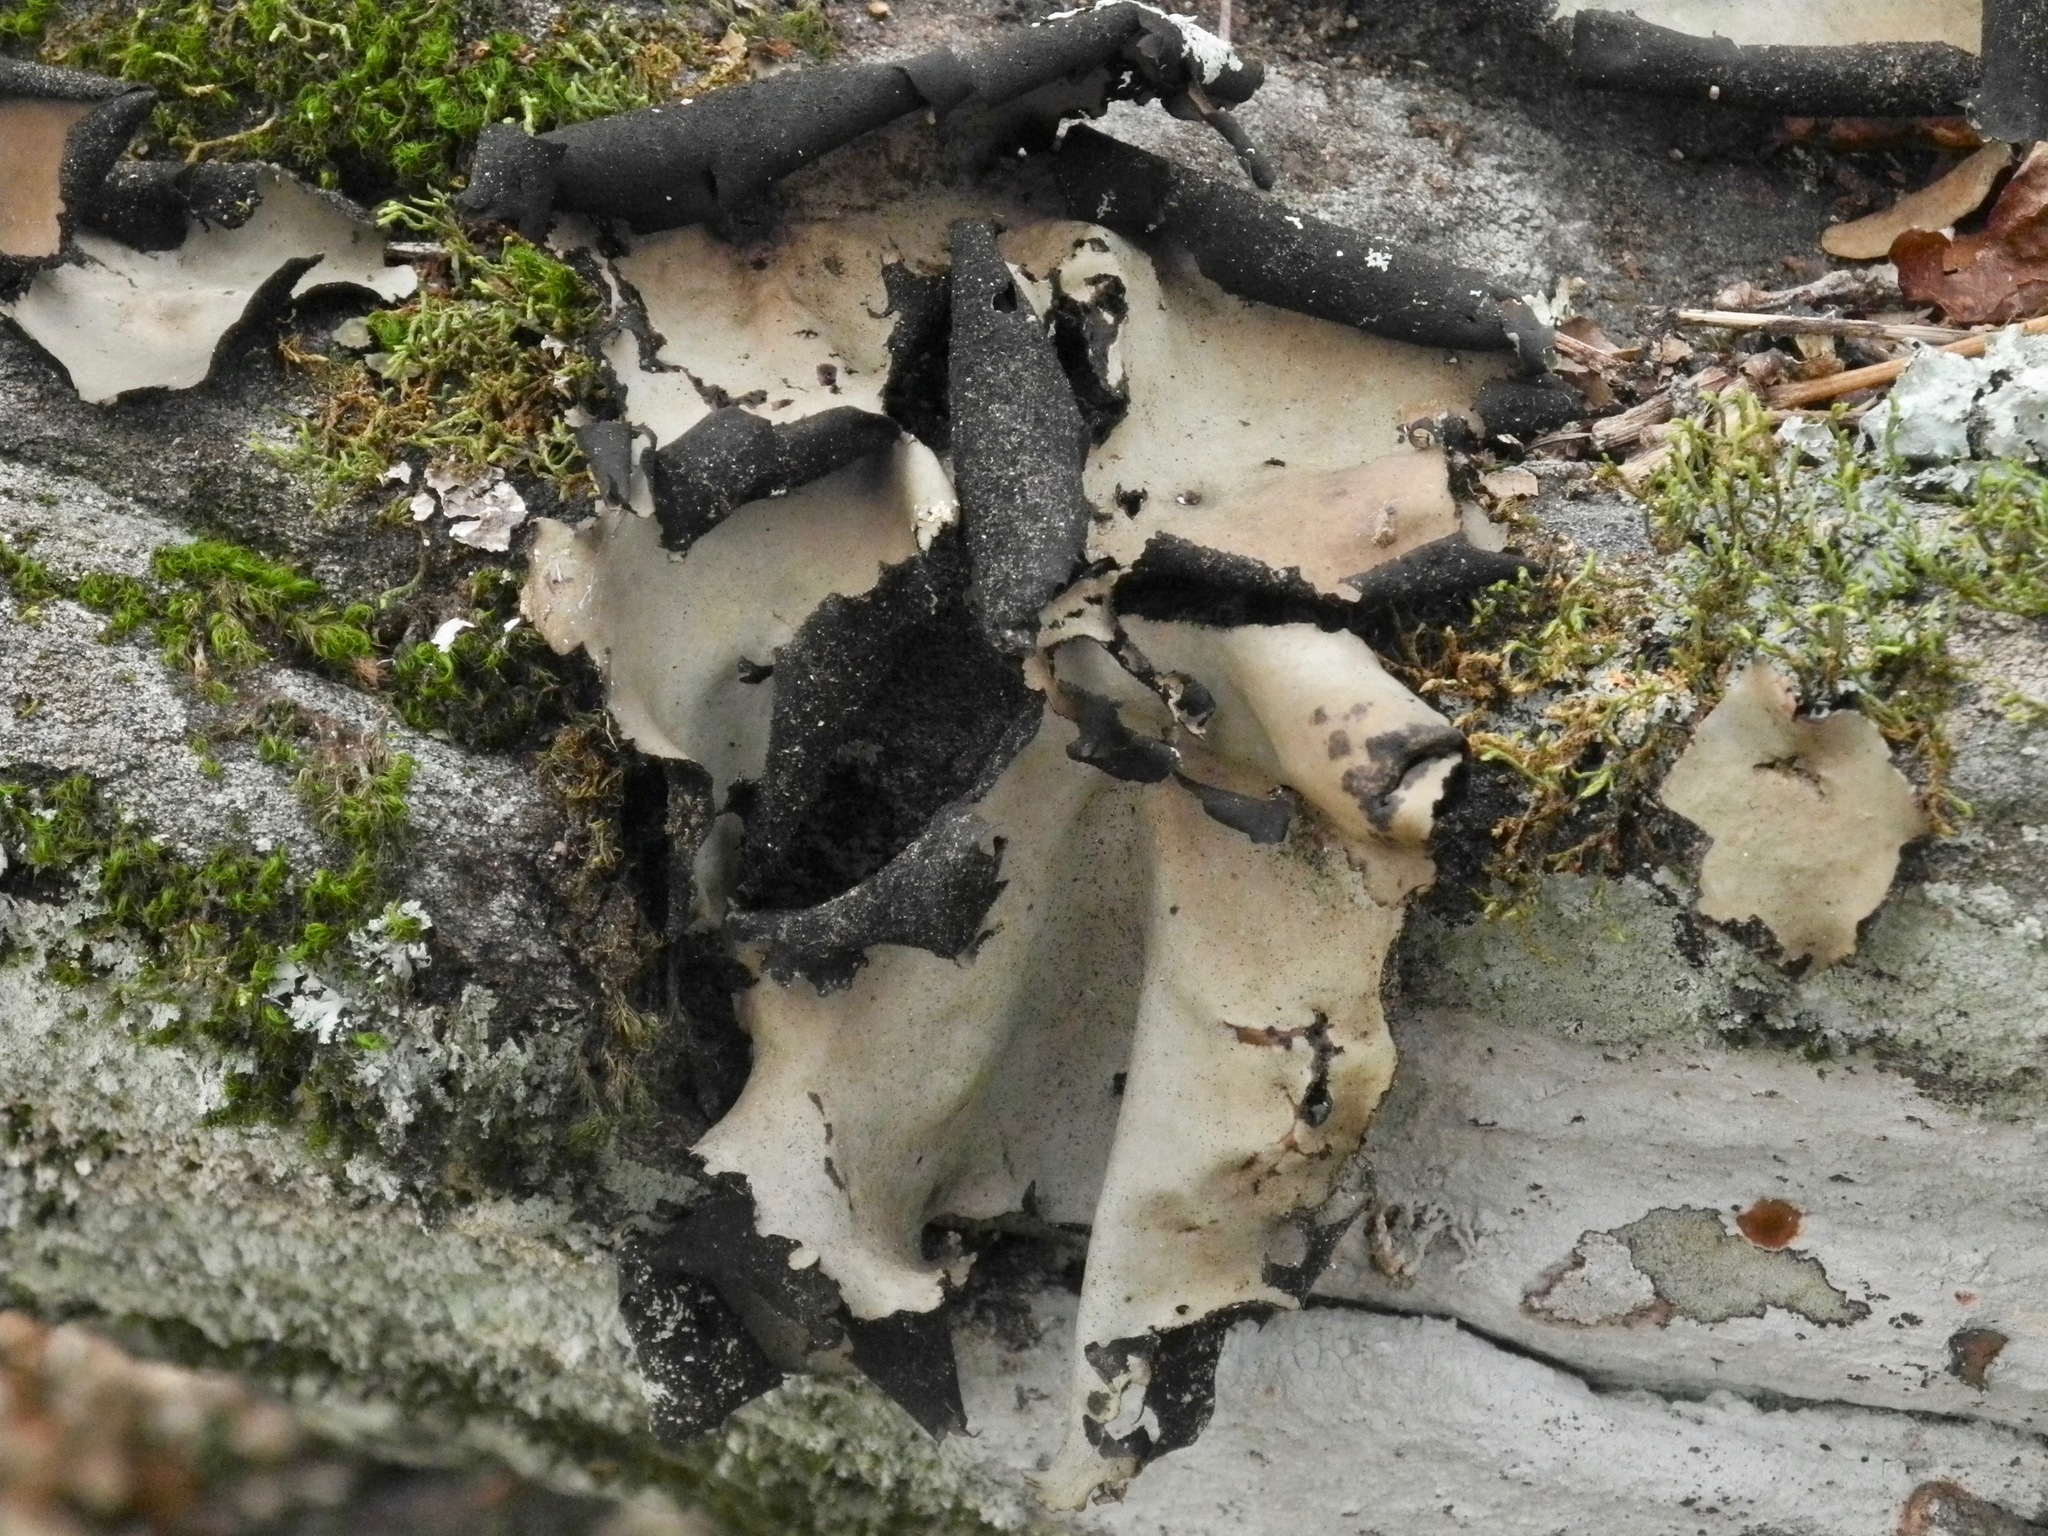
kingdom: Fungi
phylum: Ascomycota
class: Lecanoromycetes
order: Umbilicariales
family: Umbilicariaceae
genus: Umbilicaria
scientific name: Umbilicaria mammulata
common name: Smooth rock tripe
